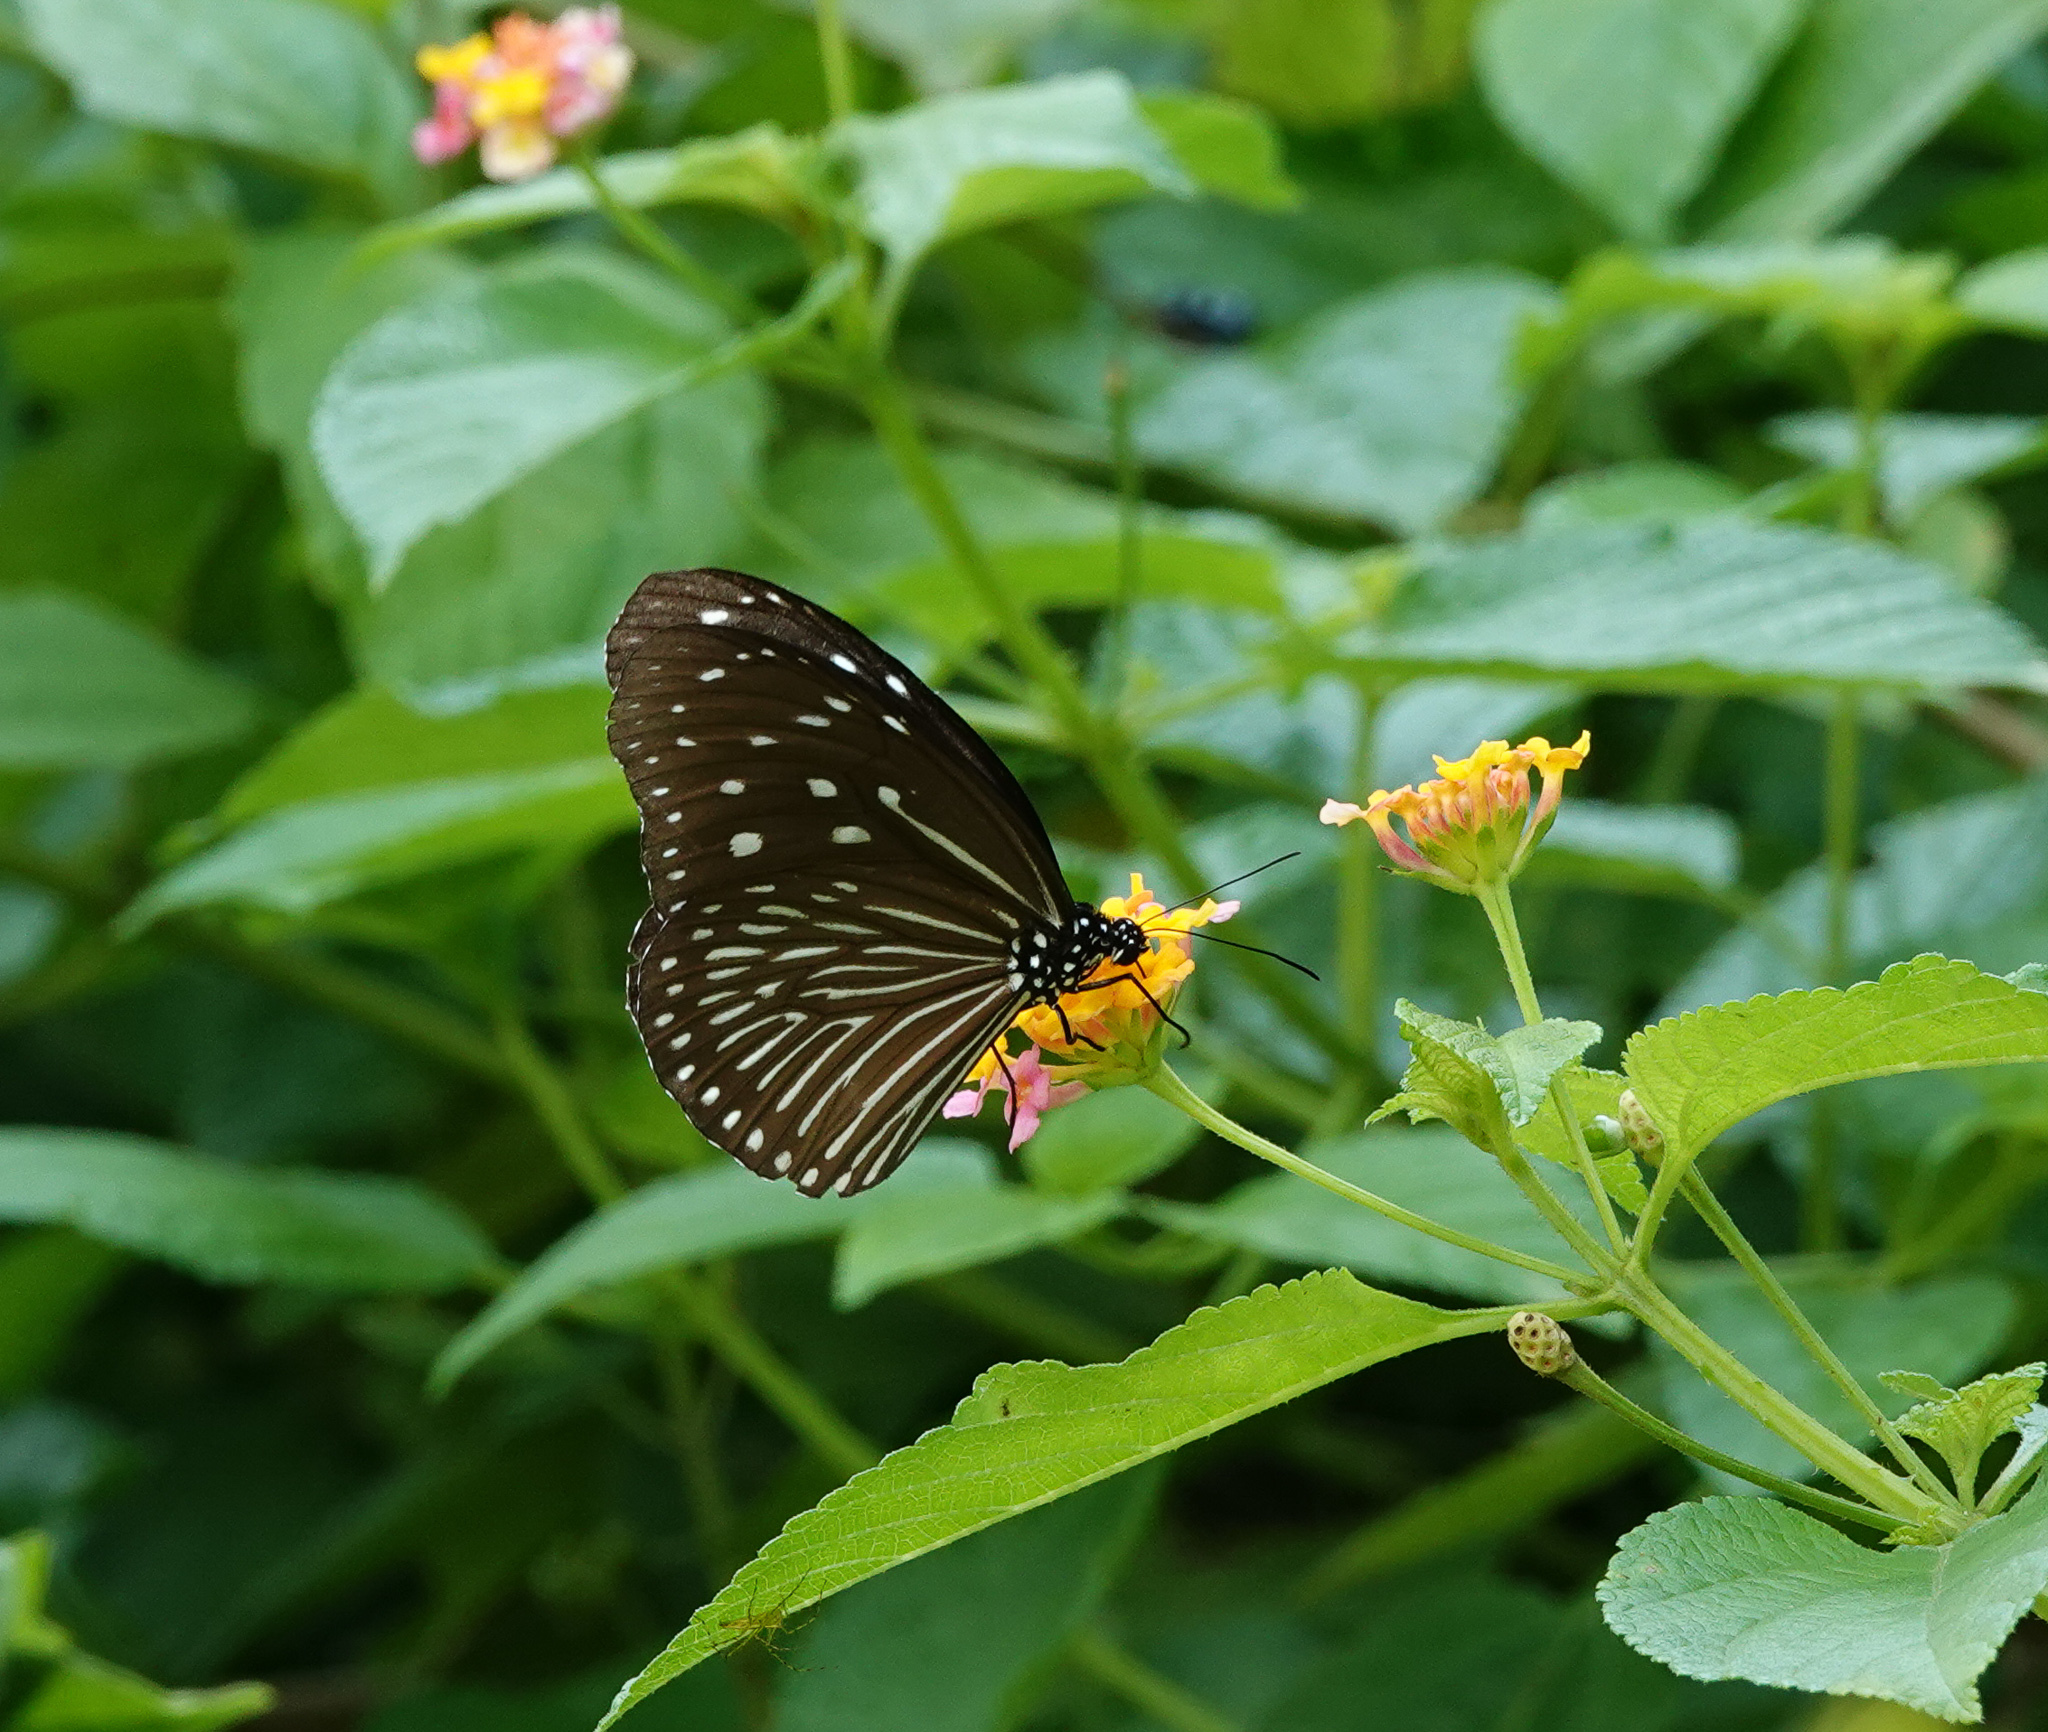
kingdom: Animalia
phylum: Arthropoda
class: Insecta
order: Lepidoptera
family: Nymphalidae
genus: Euploea
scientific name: Euploea mulciber
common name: Striped blue crow butterfly
